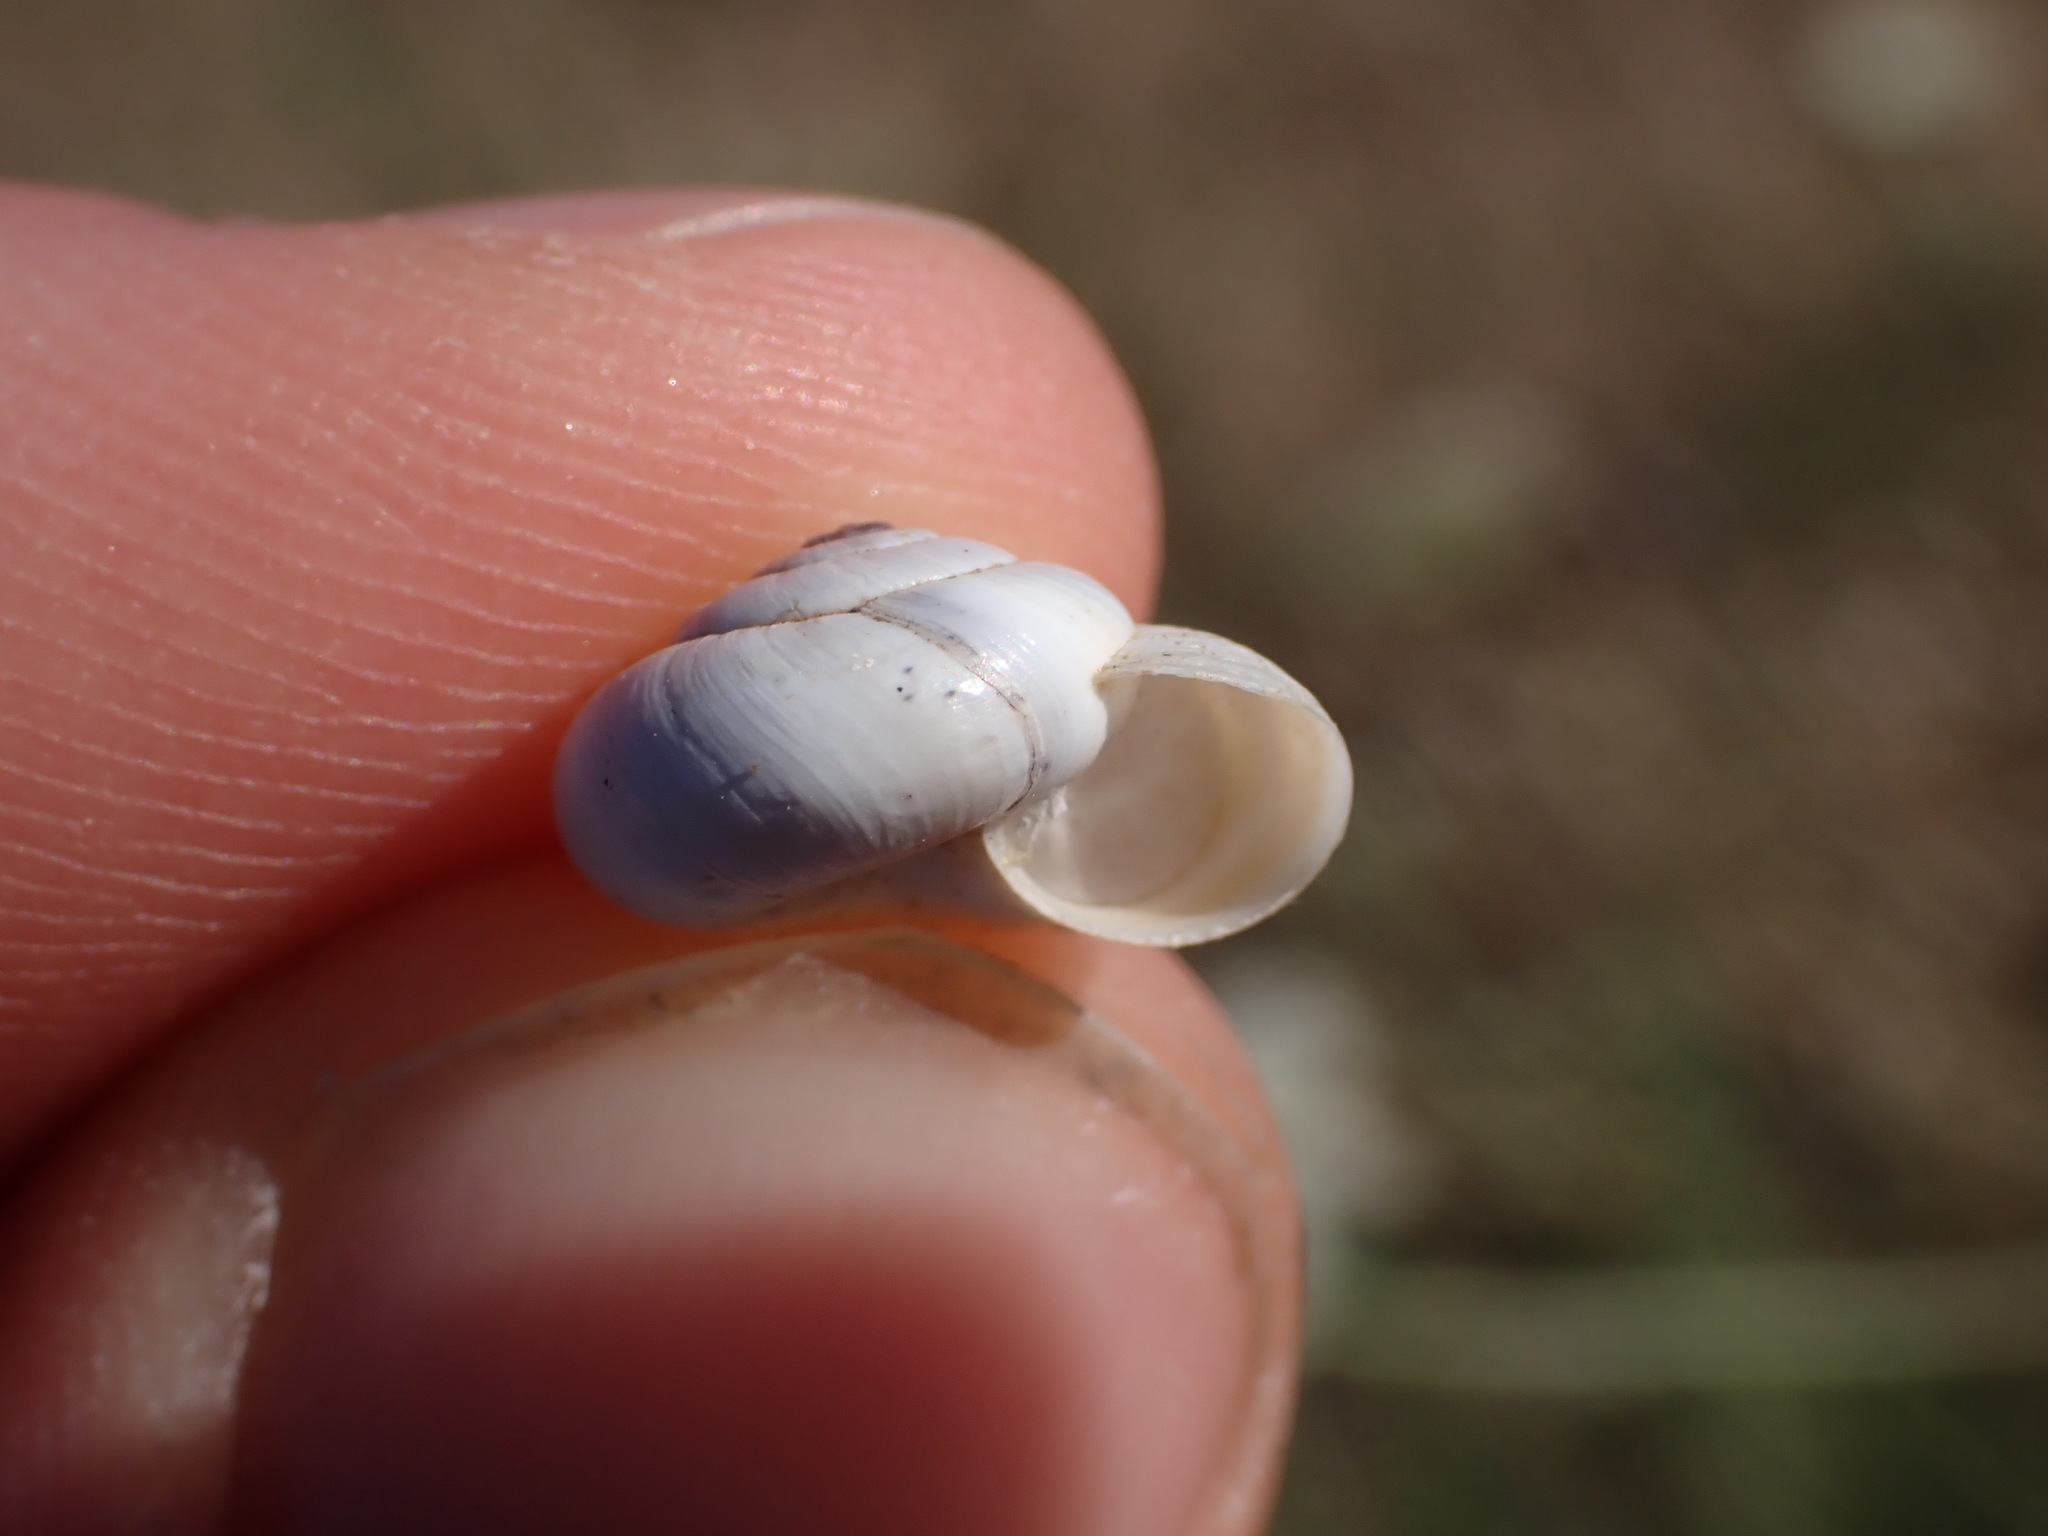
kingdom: Animalia
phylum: Mollusca
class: Gastropoda
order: Stylommatophora
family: Geomitridae
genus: Xeropicta
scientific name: Xeropicta derbentina
